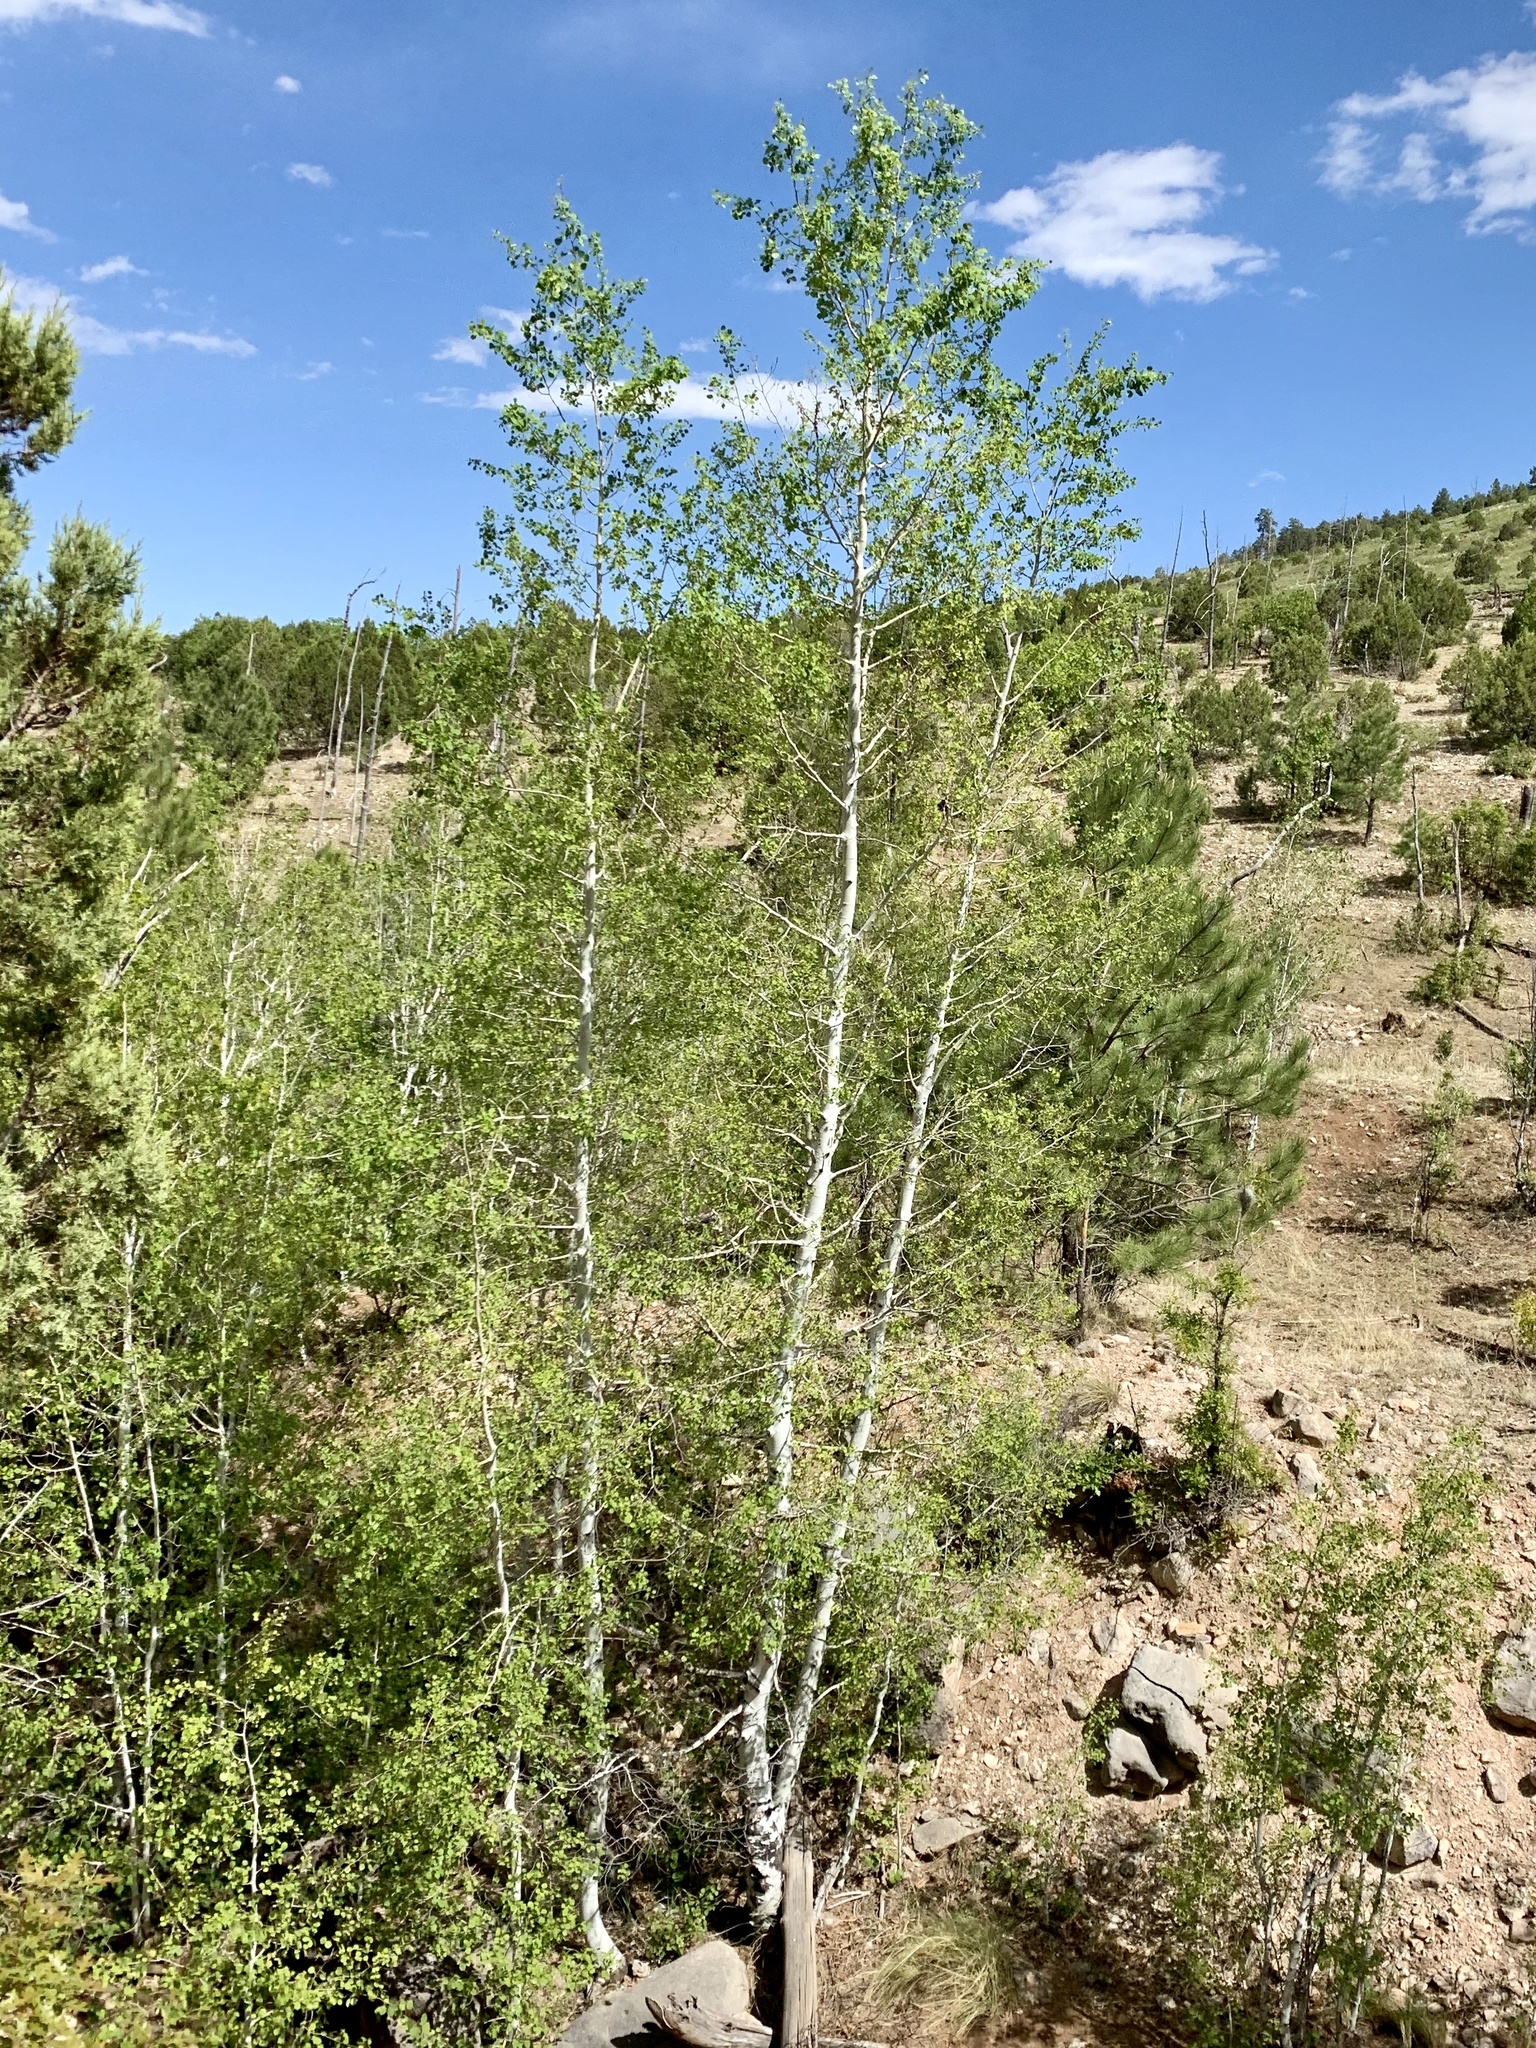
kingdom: Plantae
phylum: Tracheophyta
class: Magnoliopsida
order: Malpighiales
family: Salicaceae
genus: Populus
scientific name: Populus tremuloides
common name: Quaking aspen
